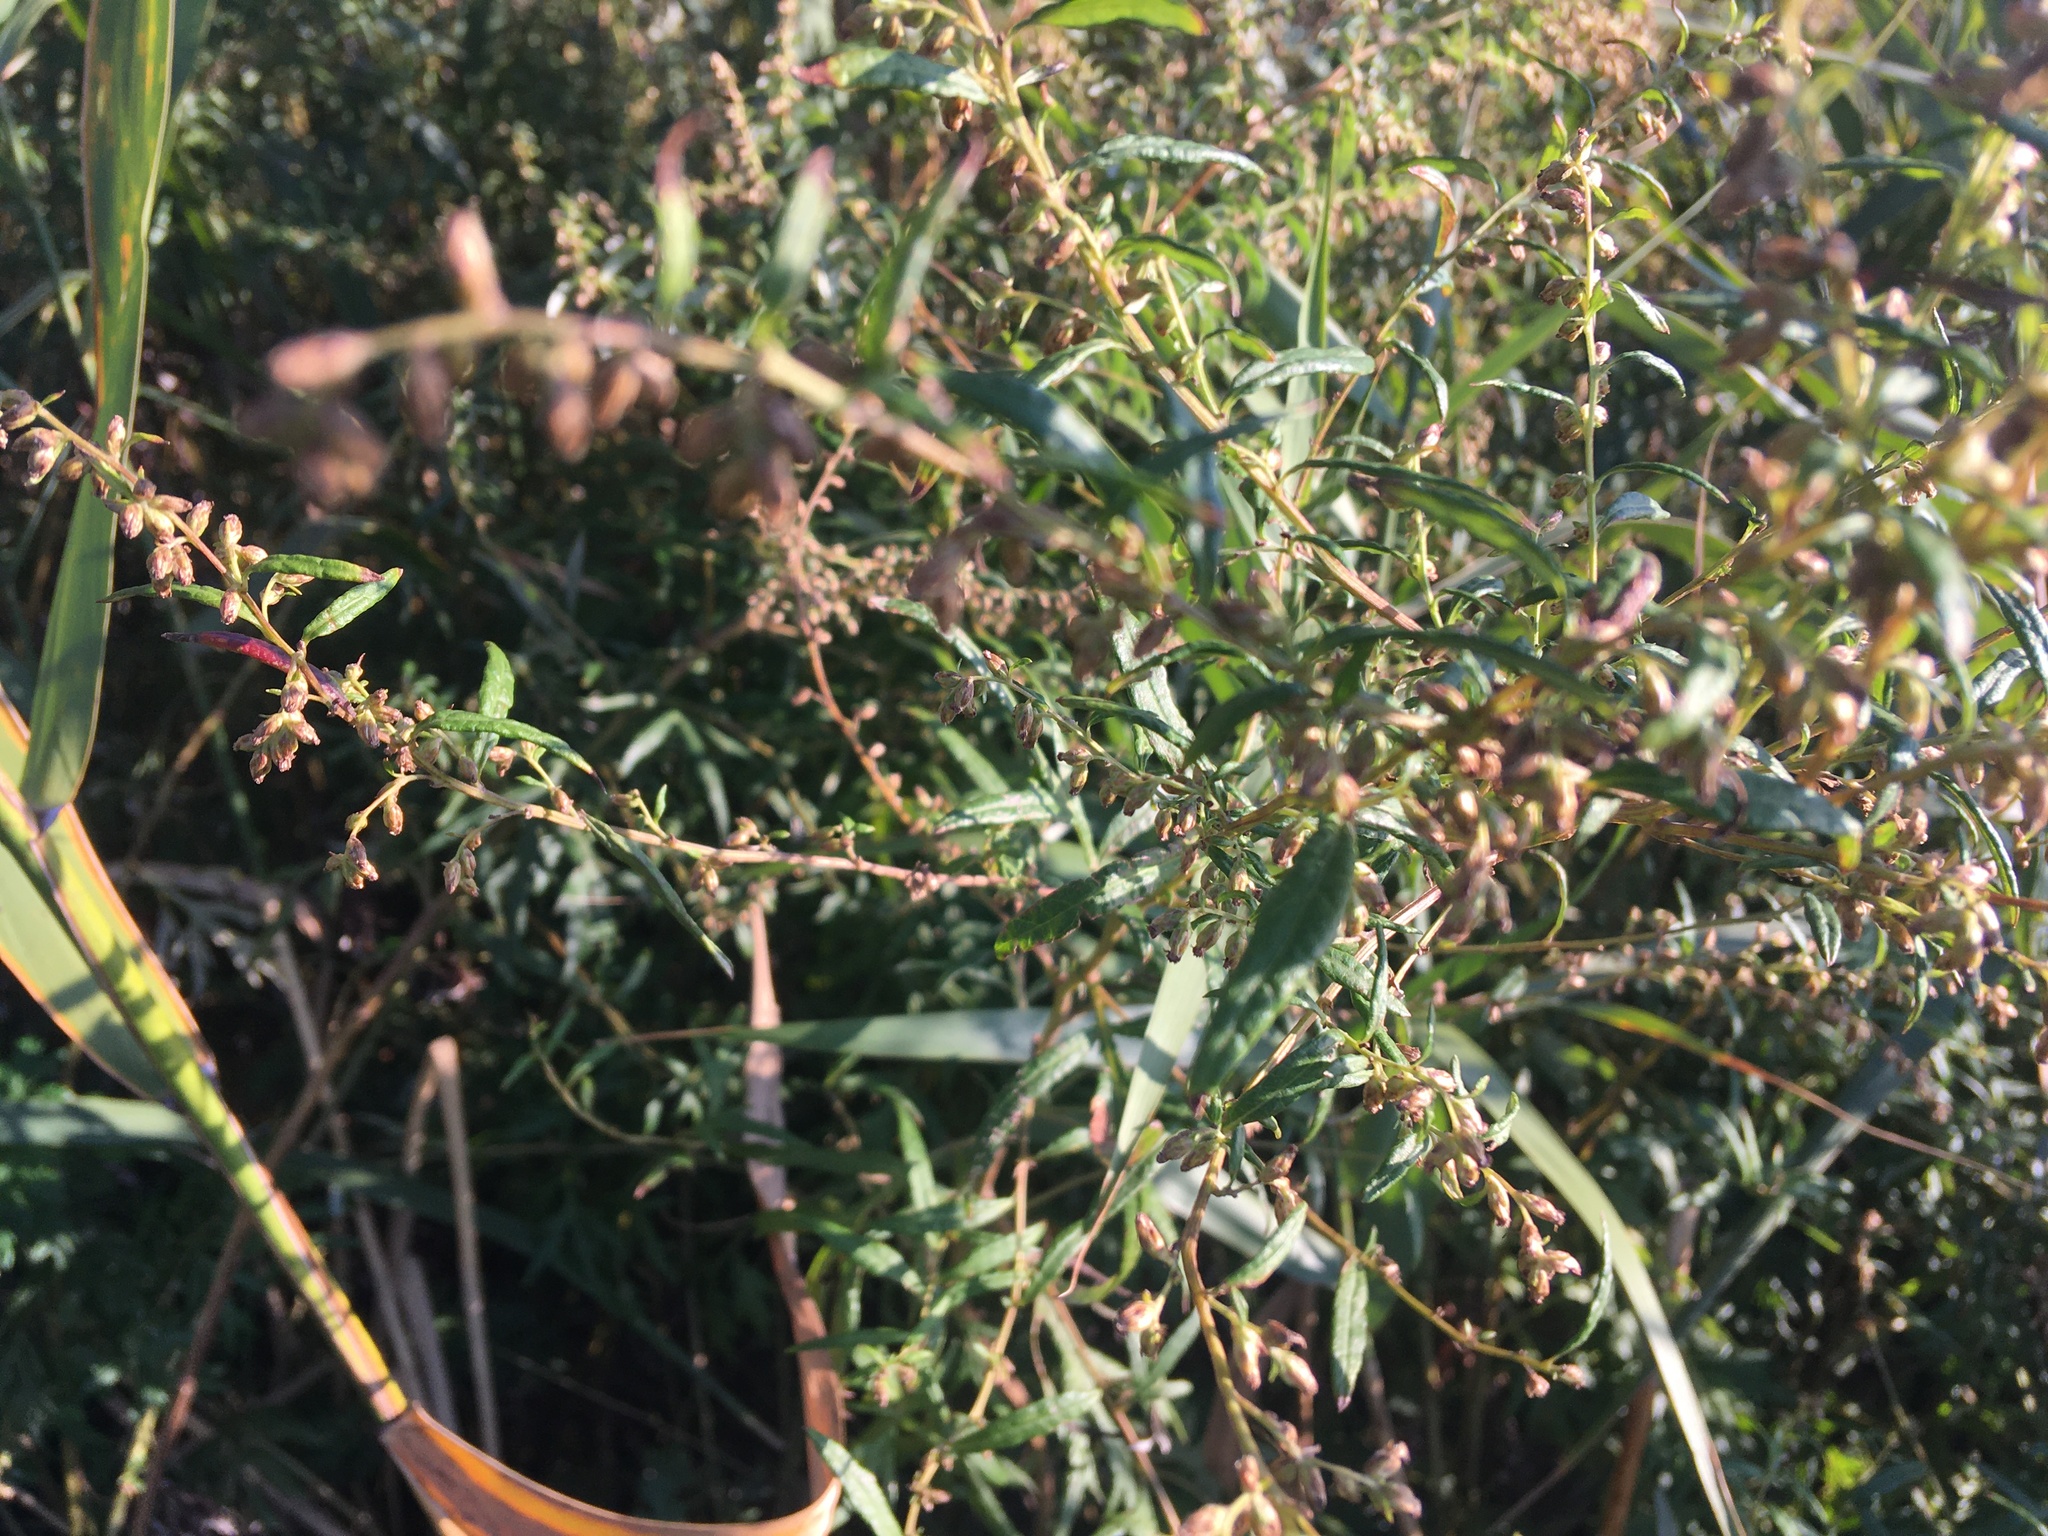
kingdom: Plantae
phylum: Tracheophyta
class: Magnoliopsida
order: Asterales
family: Asteraceae
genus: Artemisia
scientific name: Artemisia vulgaris
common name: Mugwort
